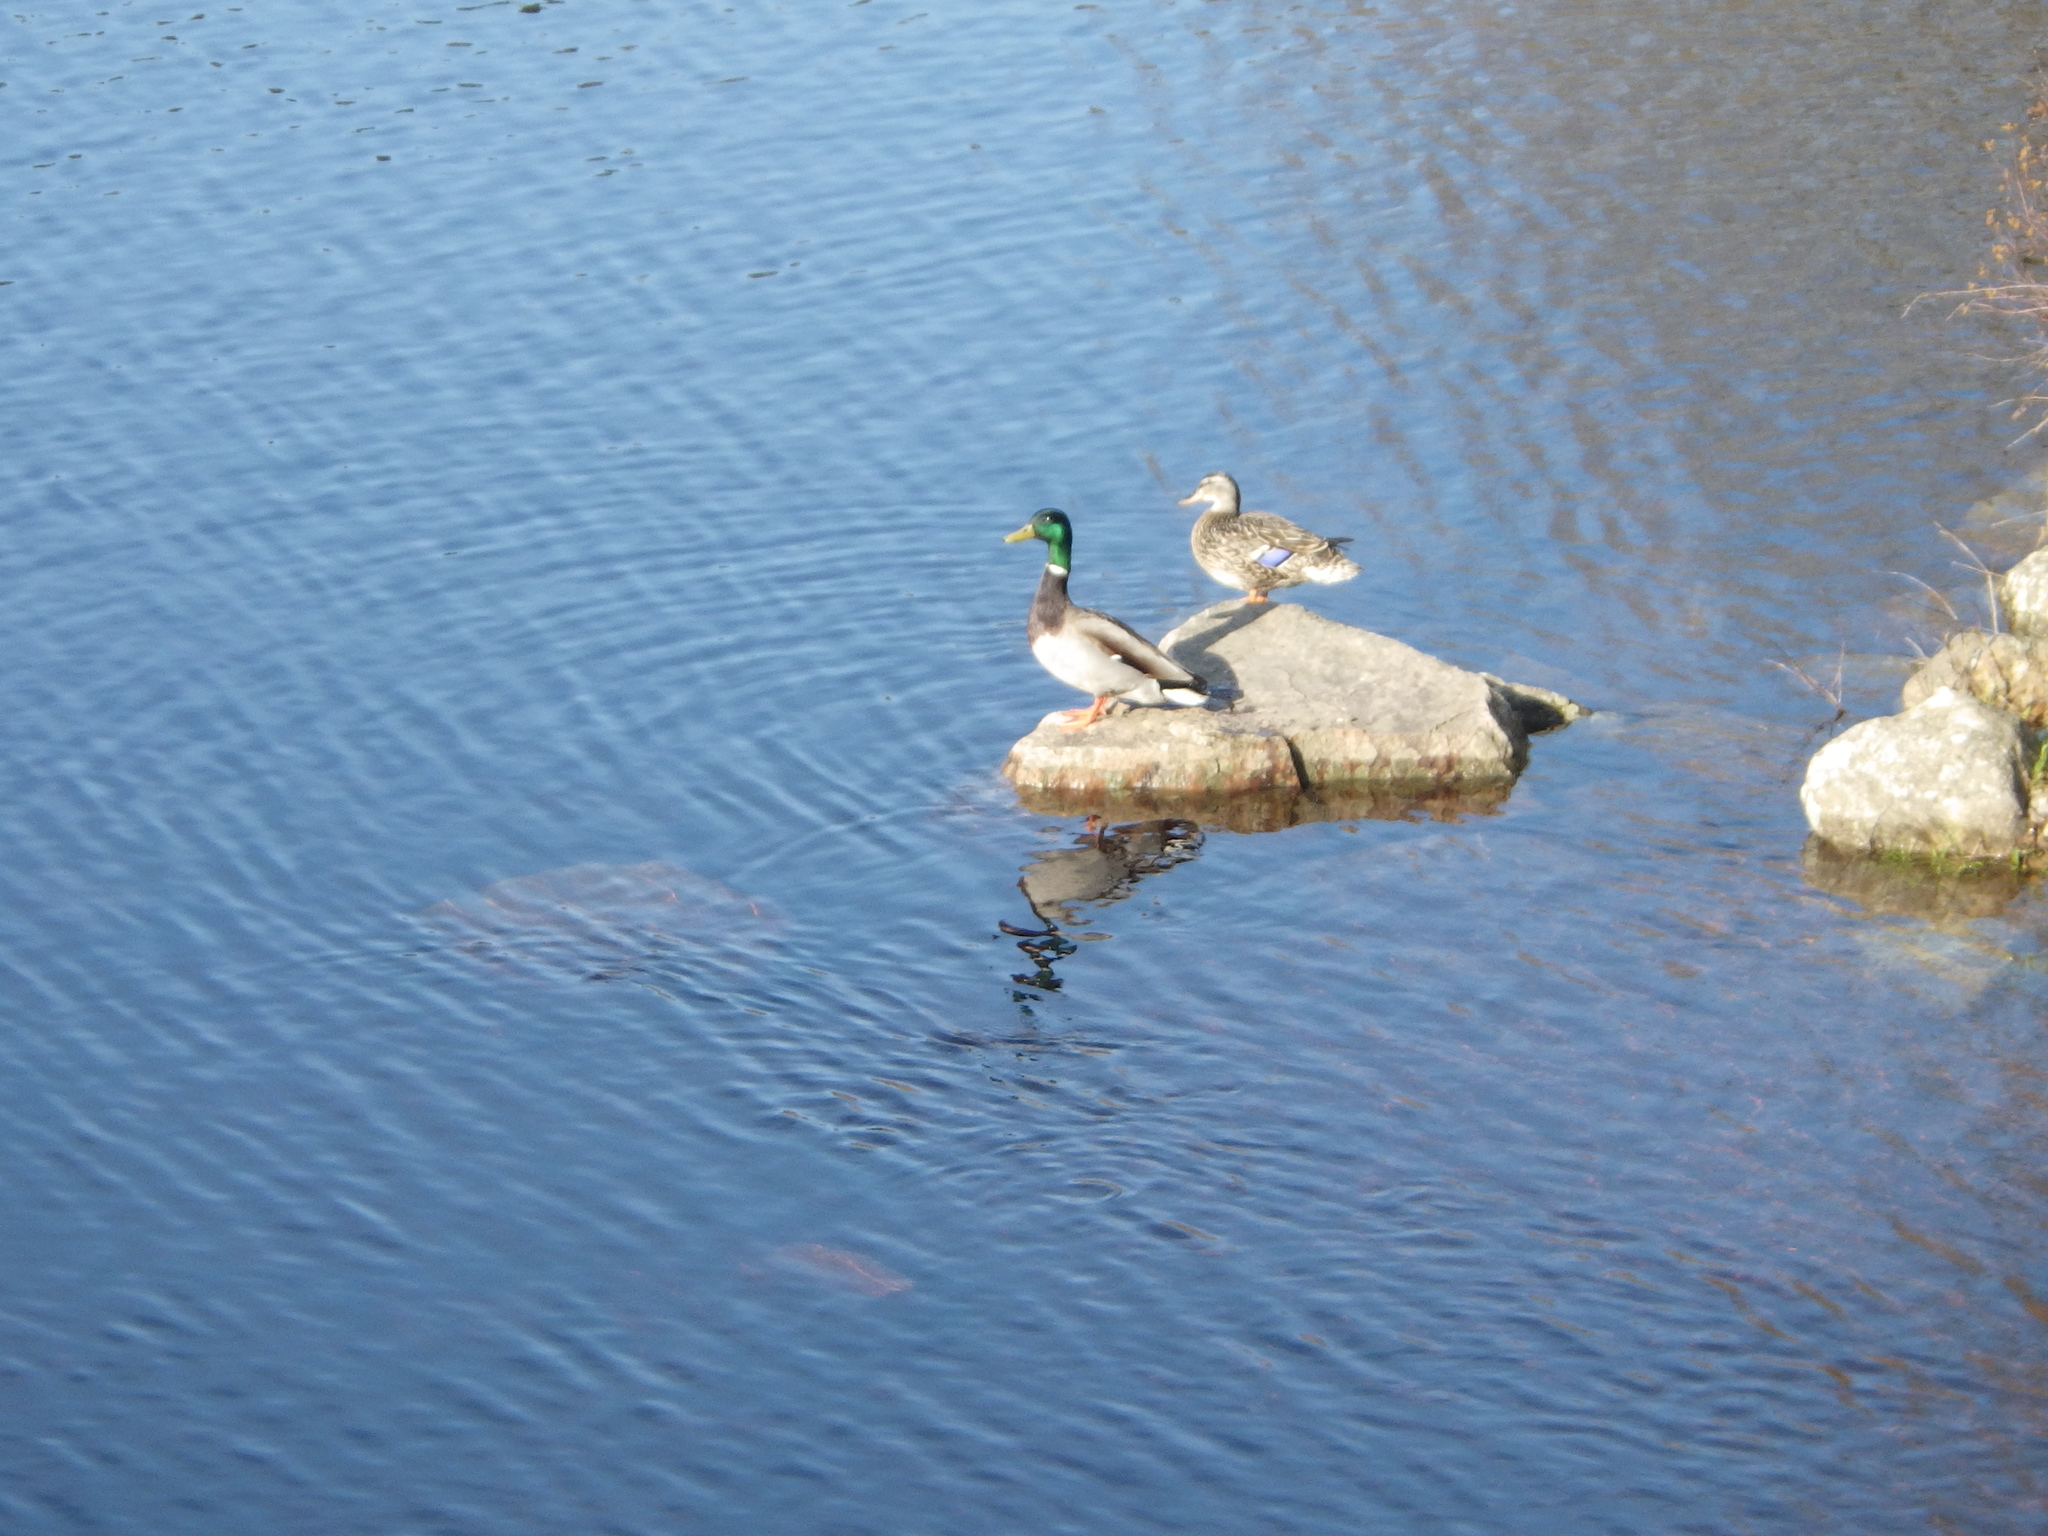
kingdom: Animalia
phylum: Chordata
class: Aves
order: Anseriformes
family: Anatidae
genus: Anas
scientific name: Anas platyrhynchos
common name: Mallard
